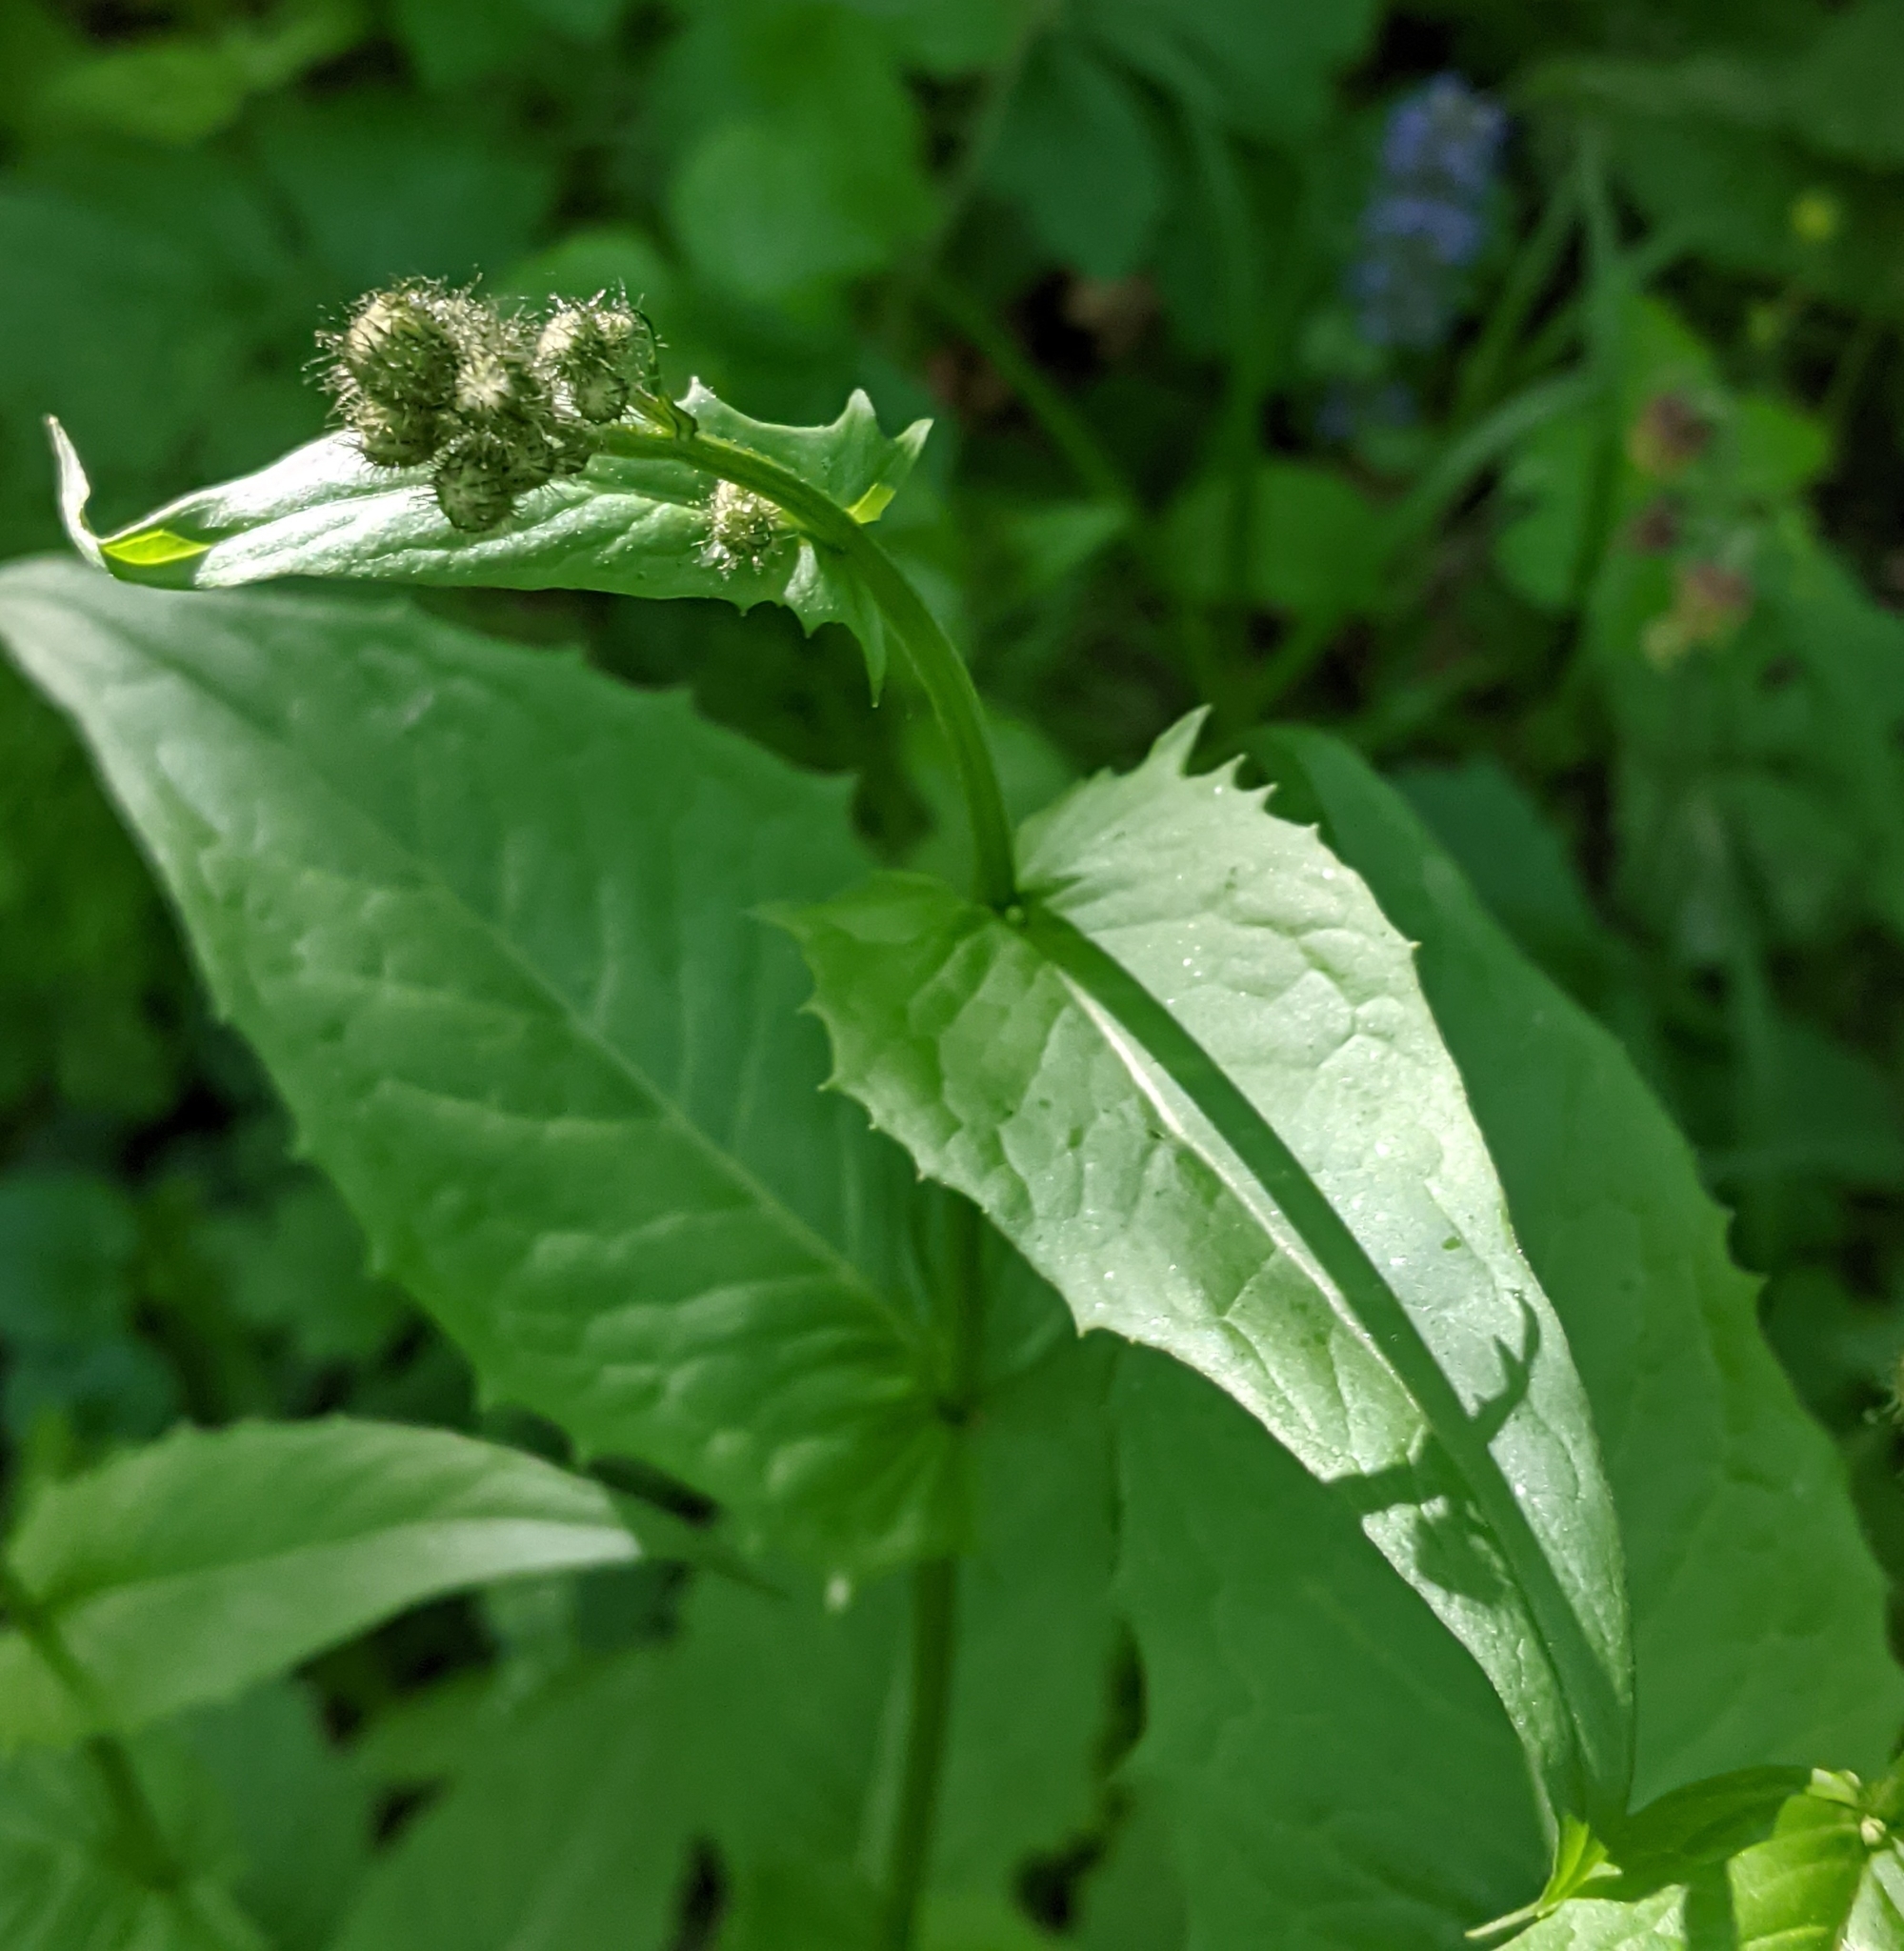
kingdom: Plantae
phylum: Tracheophyta
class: Magnoliopsida
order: Asterales
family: Asteraceae
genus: Crepis
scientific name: Crepis paludosa
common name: Marsh hawk's-beard
